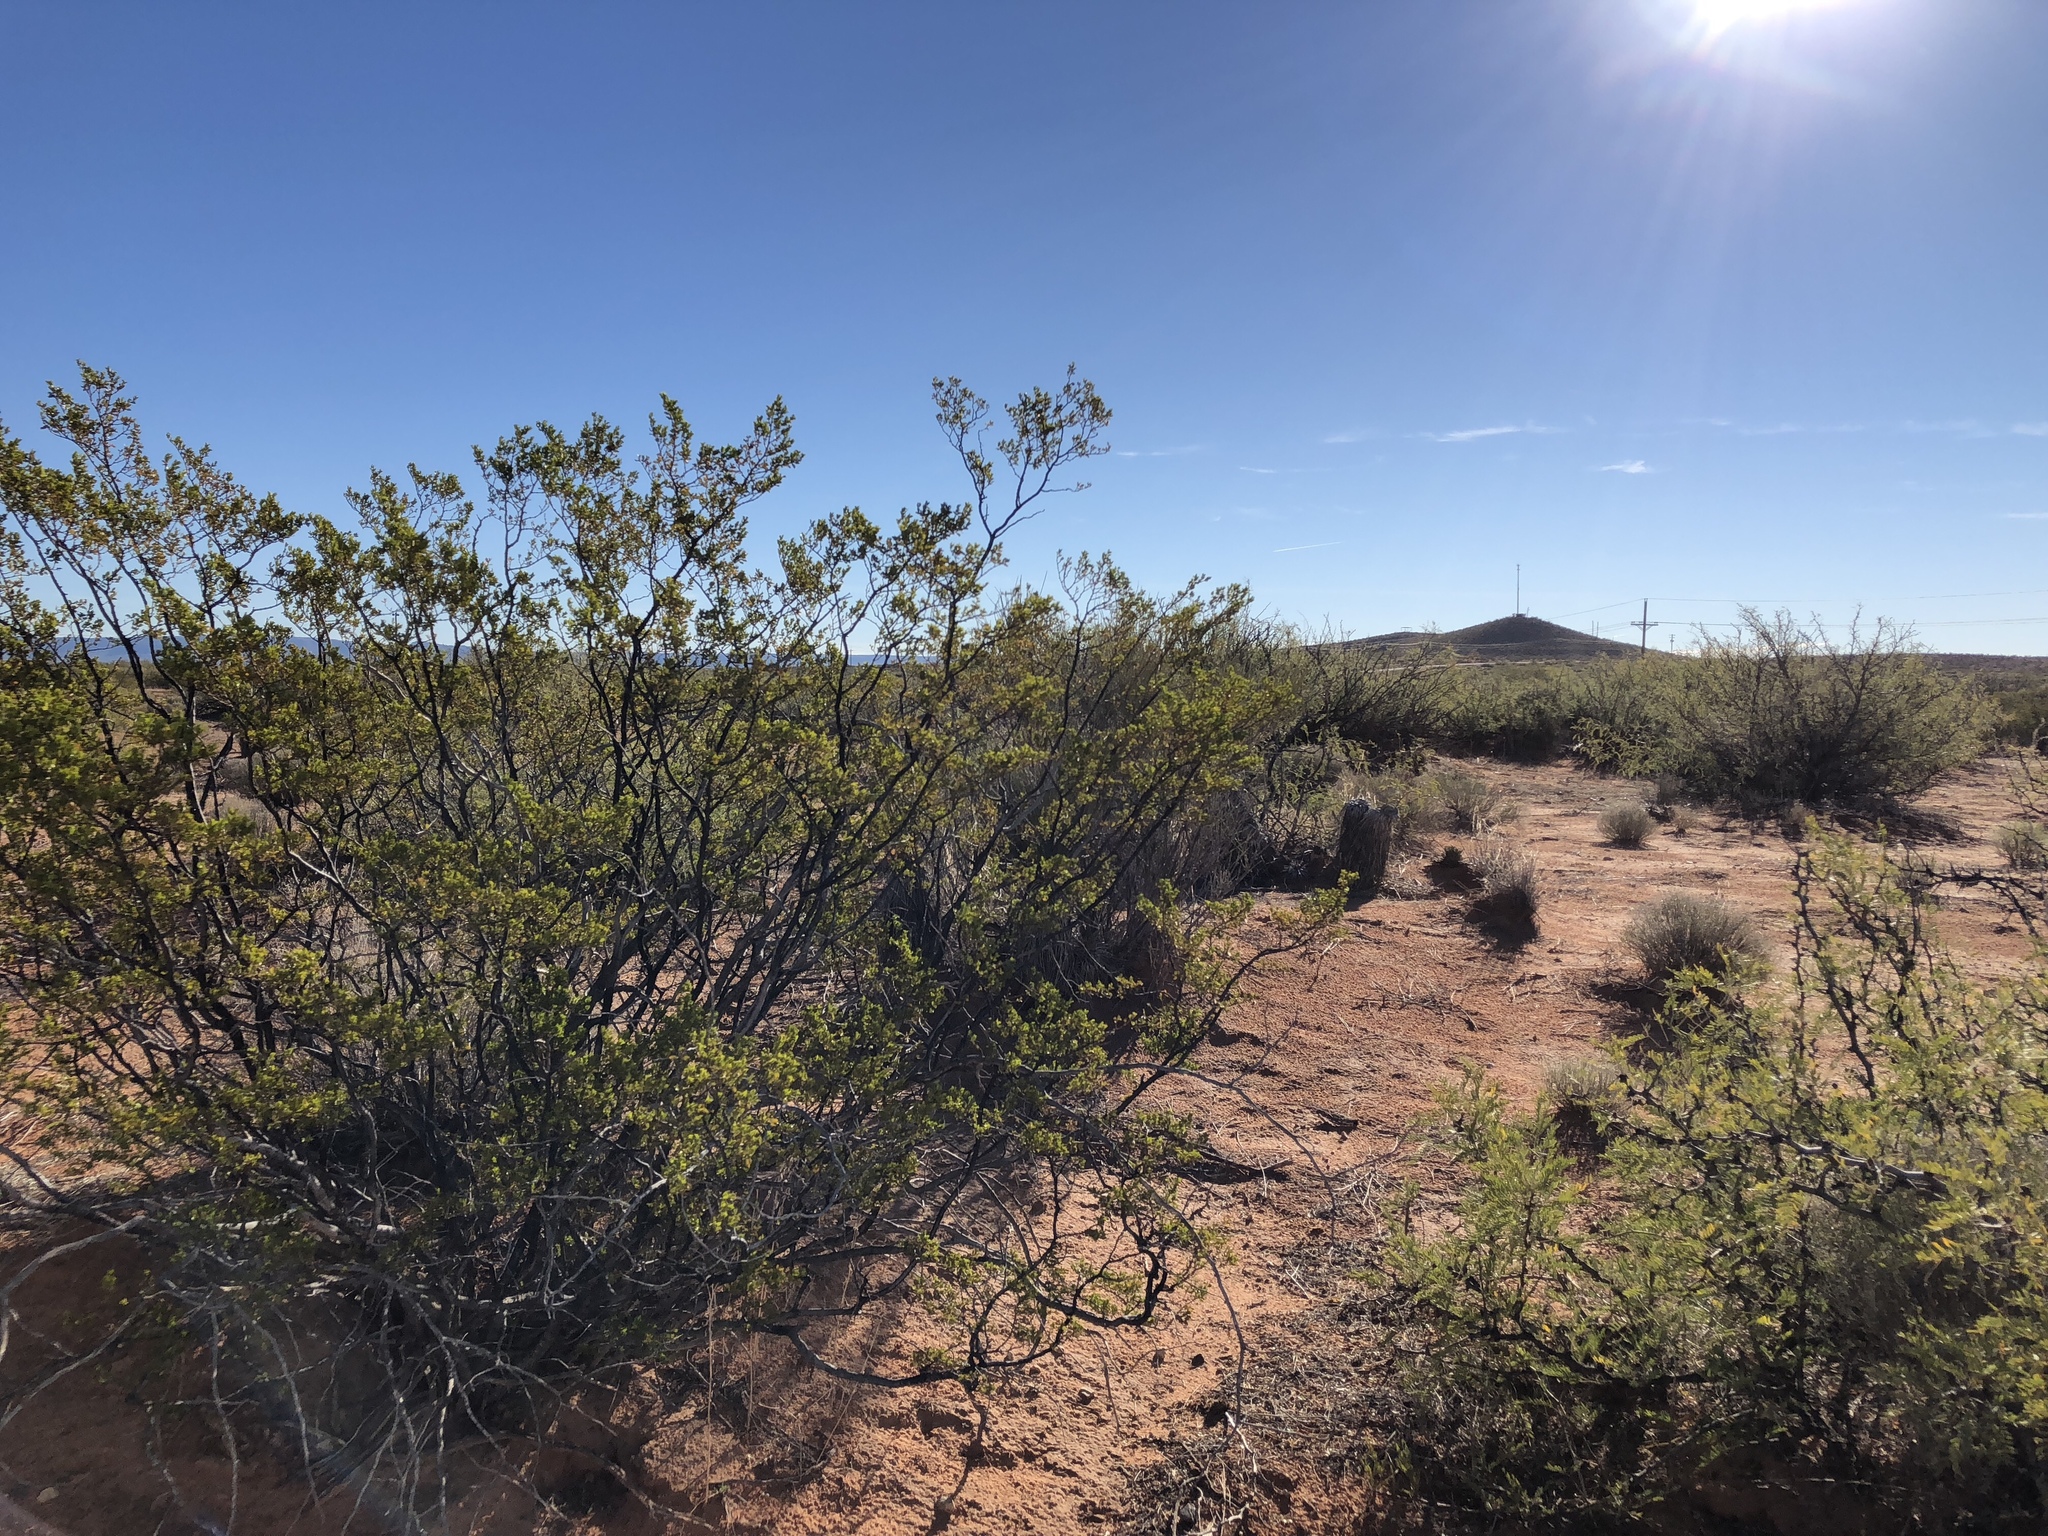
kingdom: Plantae
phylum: Tracheophyta
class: Magnoliopsida
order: Zygophyllales
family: Zygophyllaceae
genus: Larrea
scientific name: Larrea tridentata
